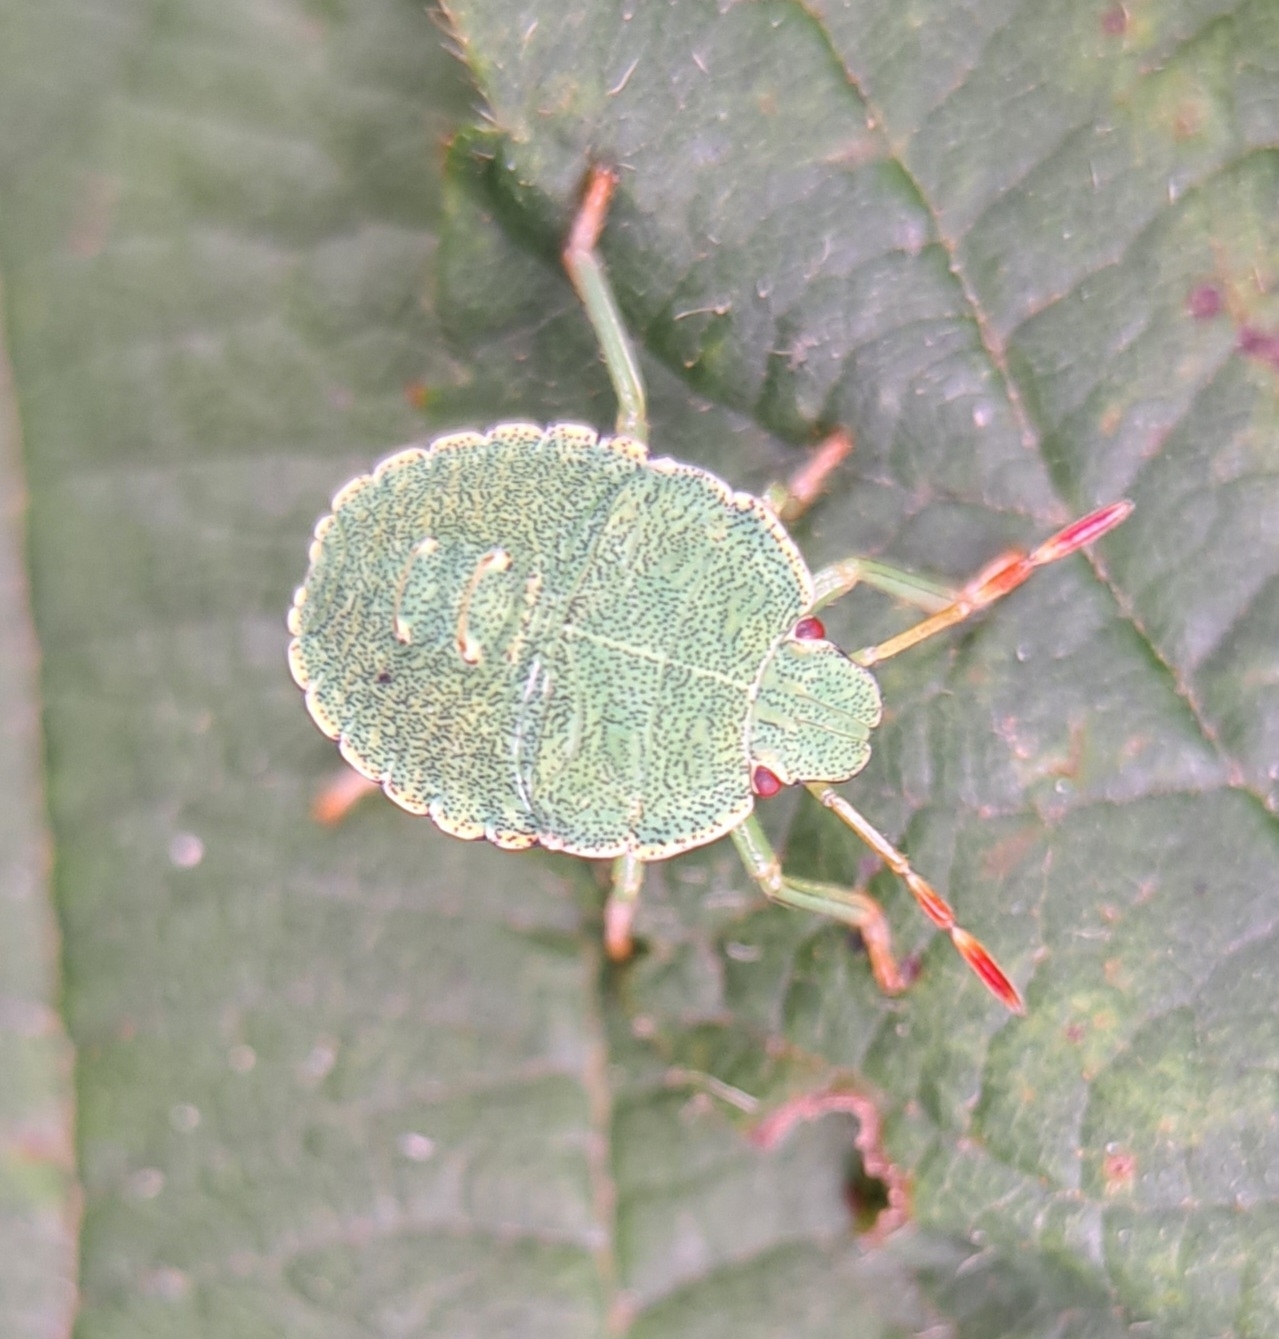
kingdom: Animalia
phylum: Arthropoda
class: Insecta
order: Hemiptera
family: Pentatomidae
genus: Palomena
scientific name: Palomena prasina
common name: Green shieldbug
